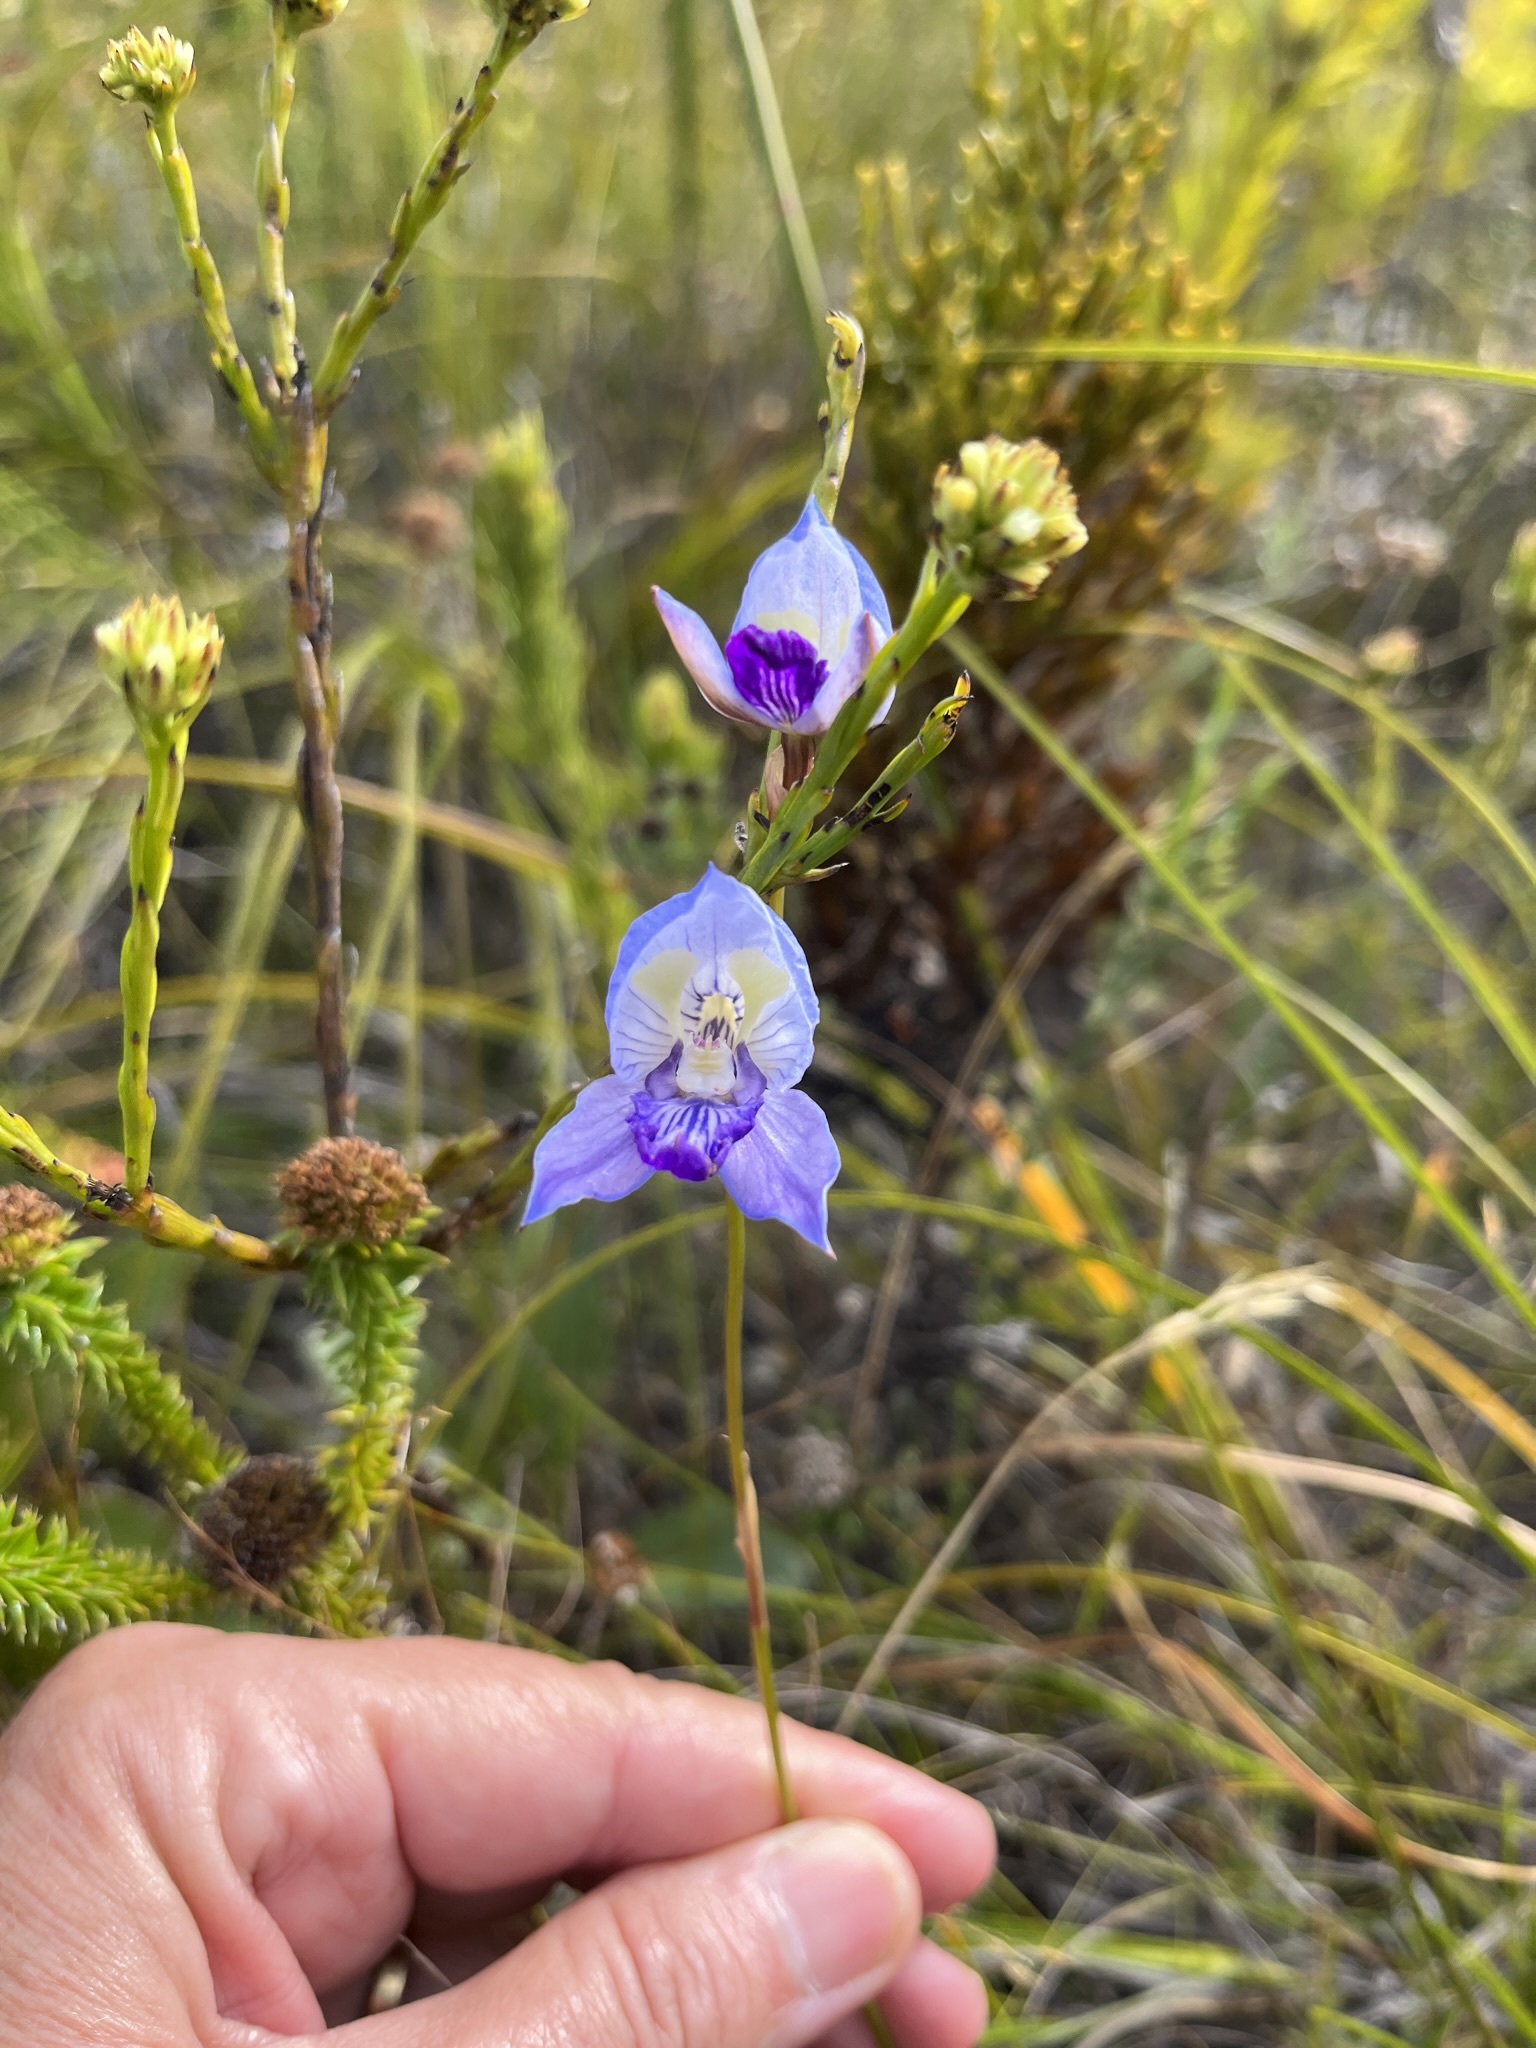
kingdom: Plantae
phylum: Tracheophyta
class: Liliopsida
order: Asparagales
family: Orchidaceae
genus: Disa
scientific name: Disa purpurascens
